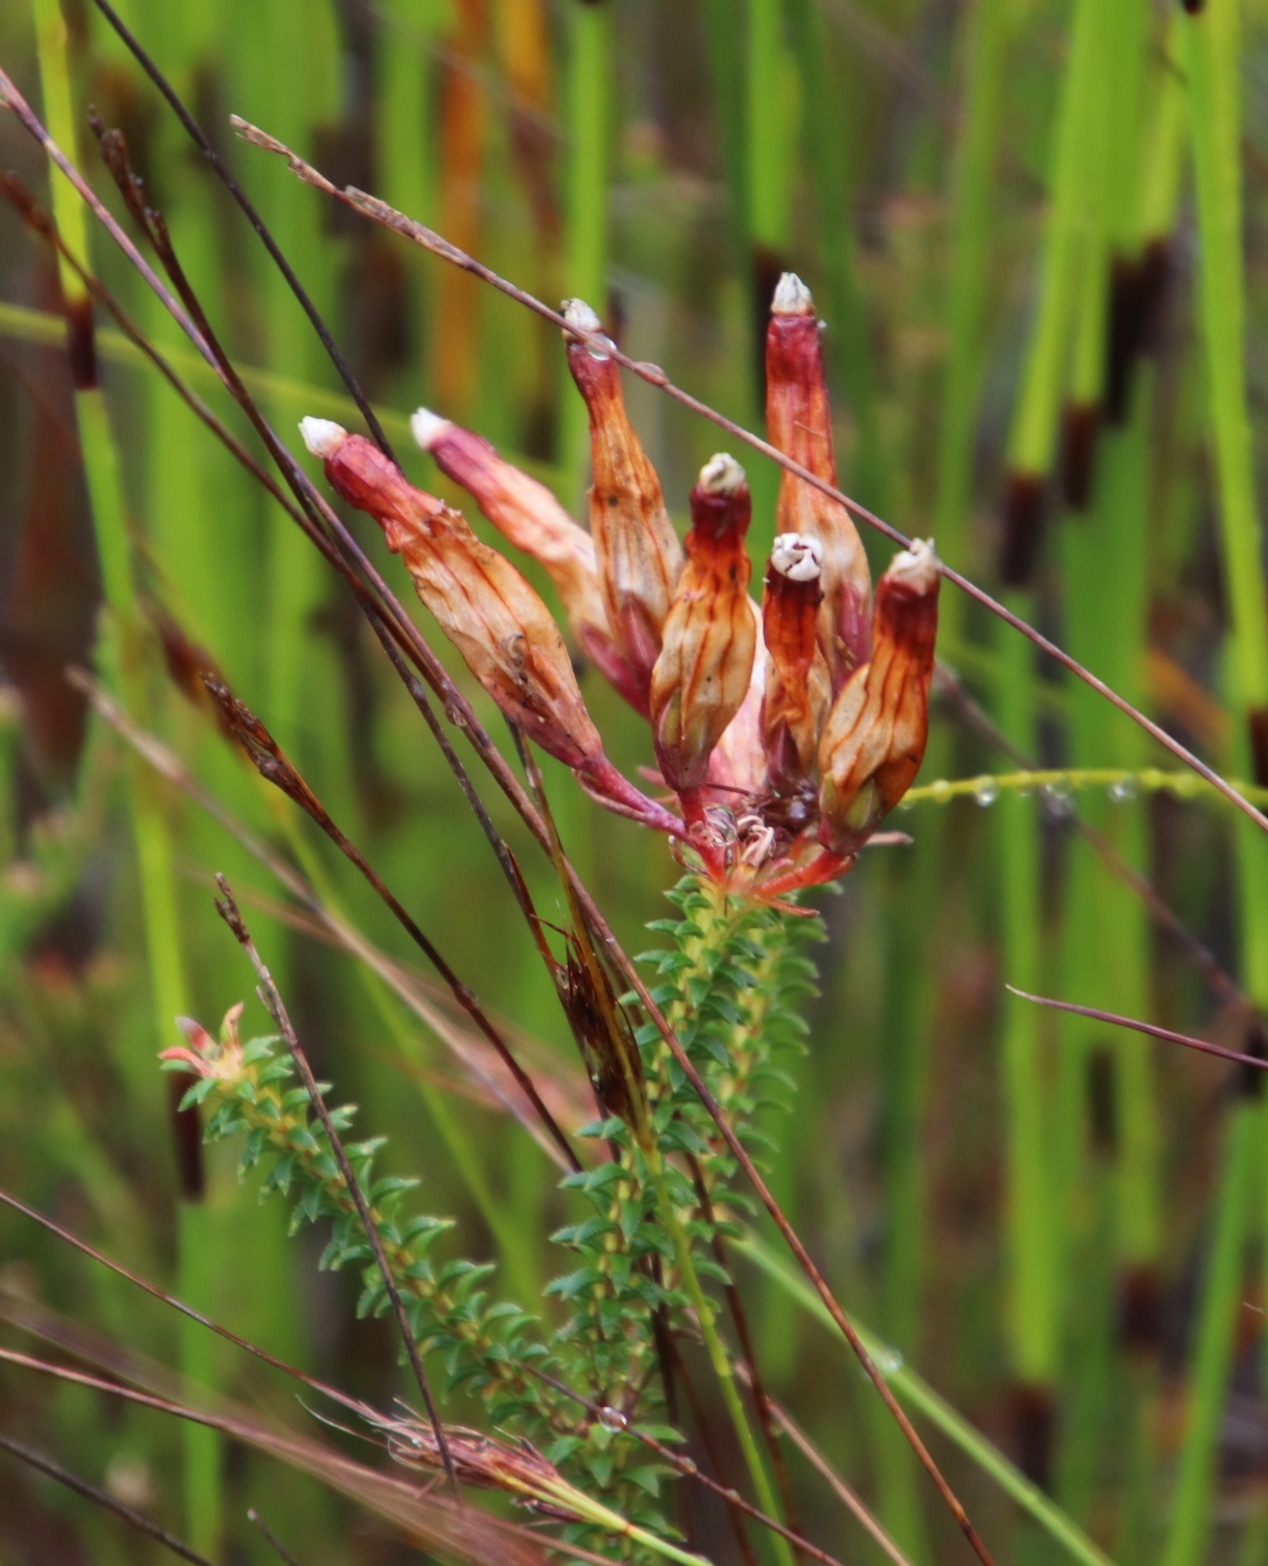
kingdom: Plantae
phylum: Tracheophyta
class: Magnoliopsida
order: Ericales
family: Ericaceae
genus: Erica
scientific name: Erica aristata
